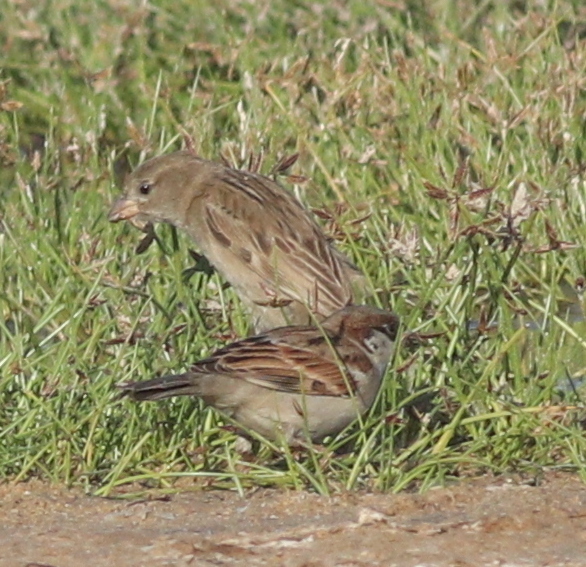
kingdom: Animalia
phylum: Chordata
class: Aves
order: Passeriformes
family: Passeridae
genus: Passer
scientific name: Passer domesticus
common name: House sparrow
